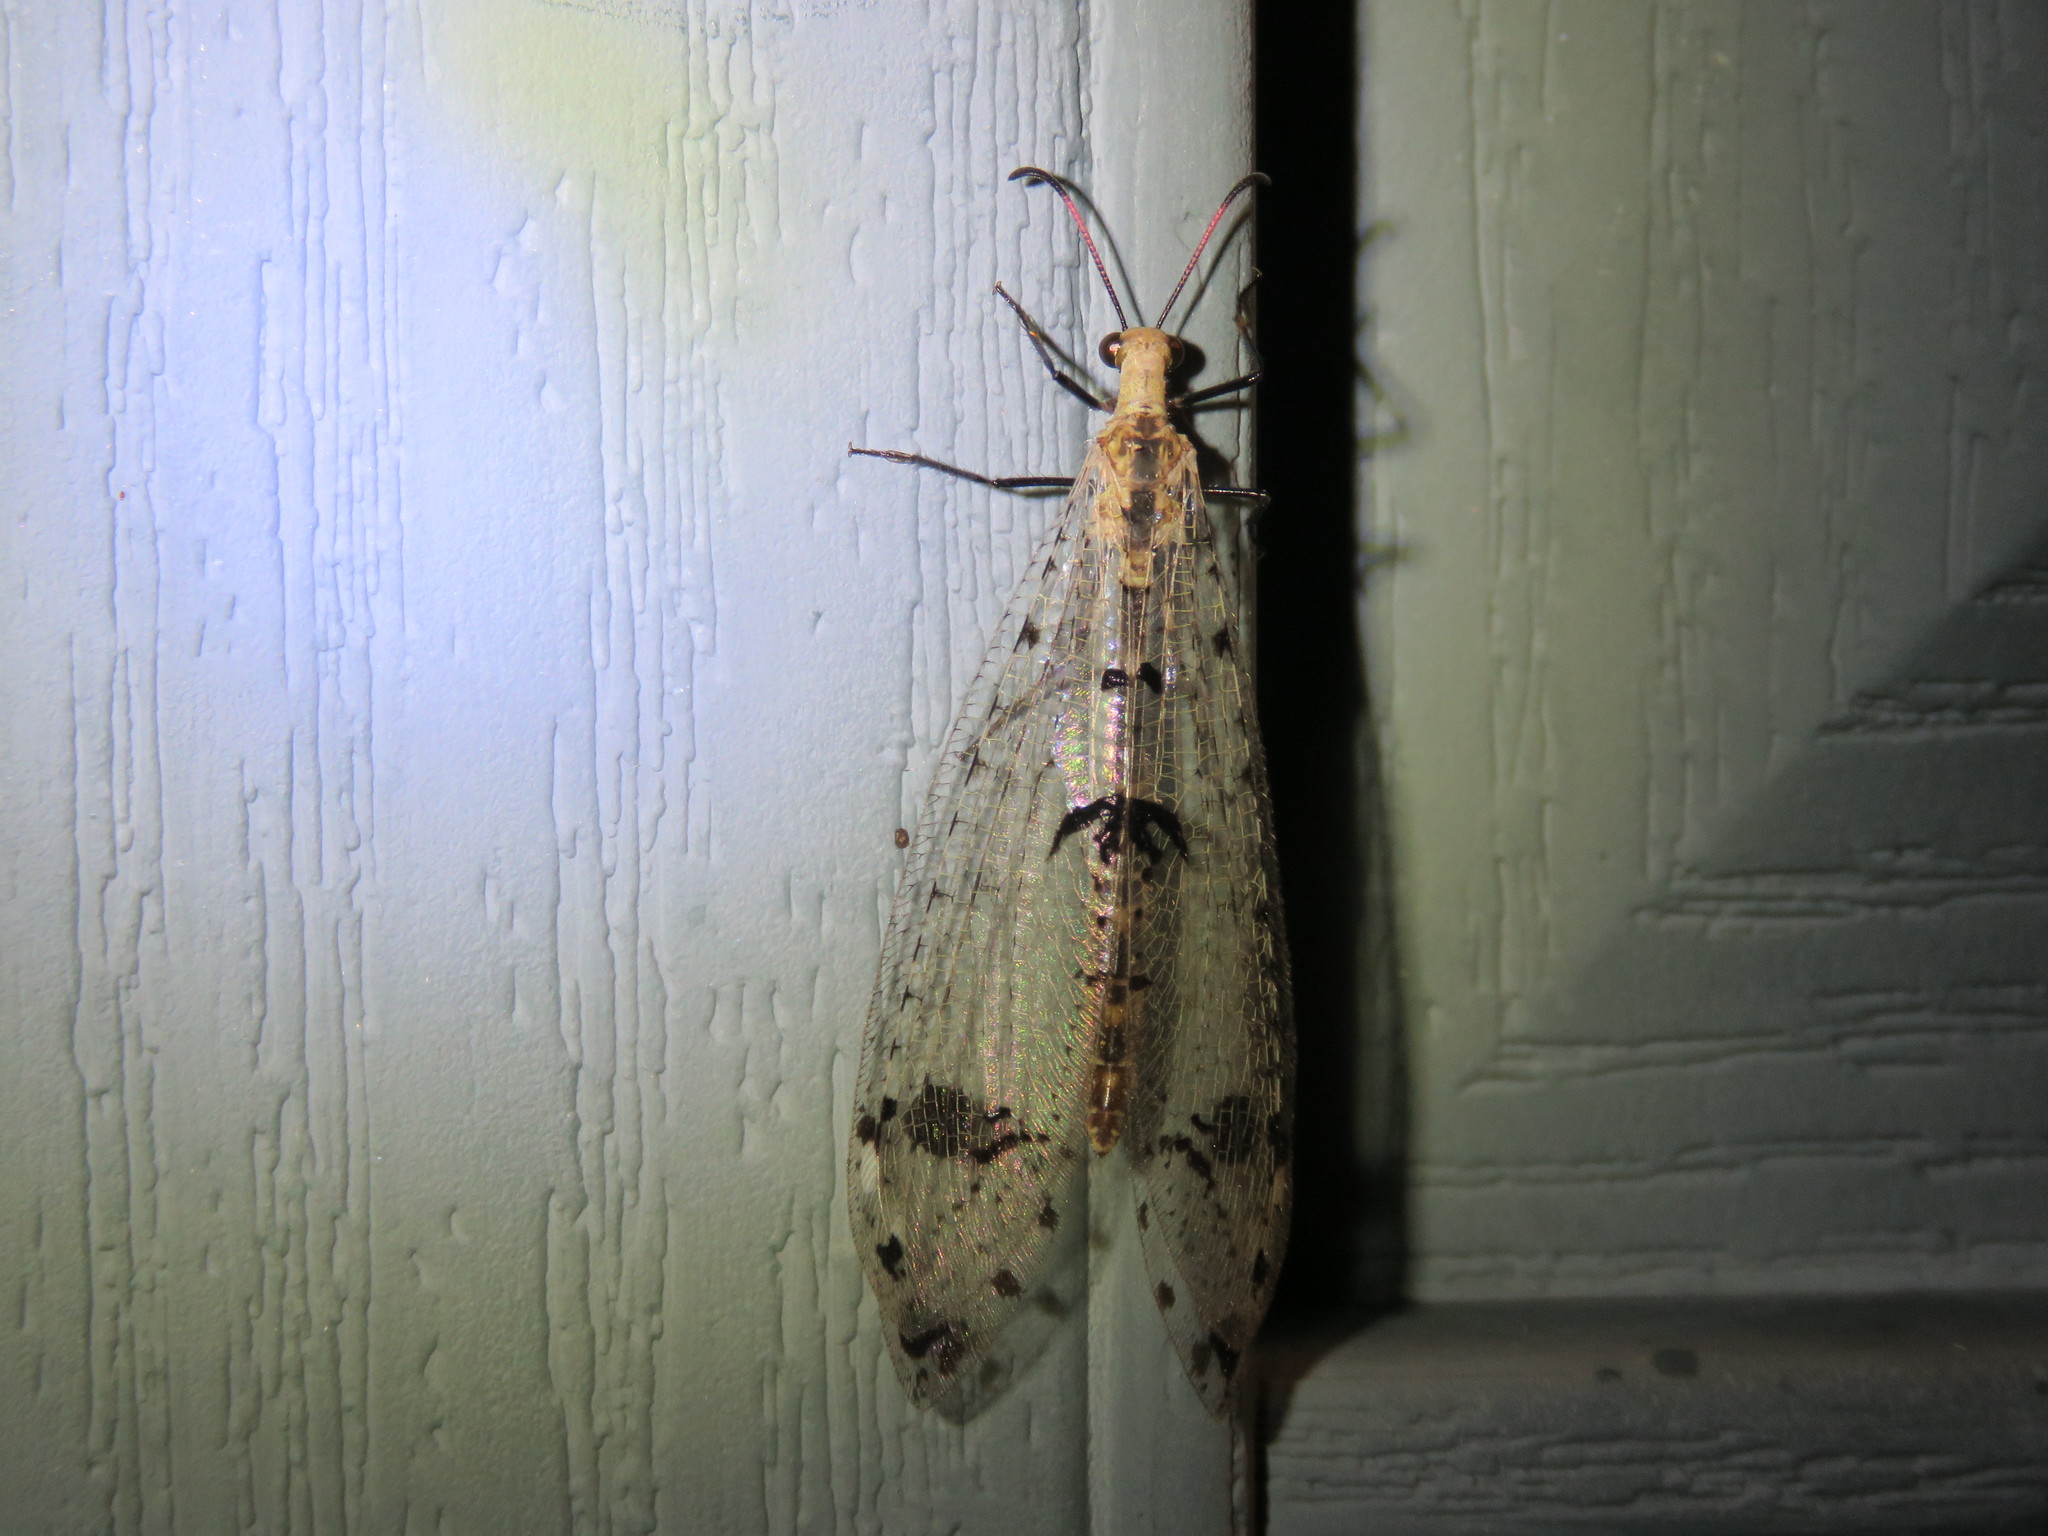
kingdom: Animalia
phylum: Arthropoda
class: Insecta
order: Neuroptera
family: Myrmeleontidae
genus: Dendroleon
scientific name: Dendroleon obsoletus
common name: Eastern spotted-winged antlion
